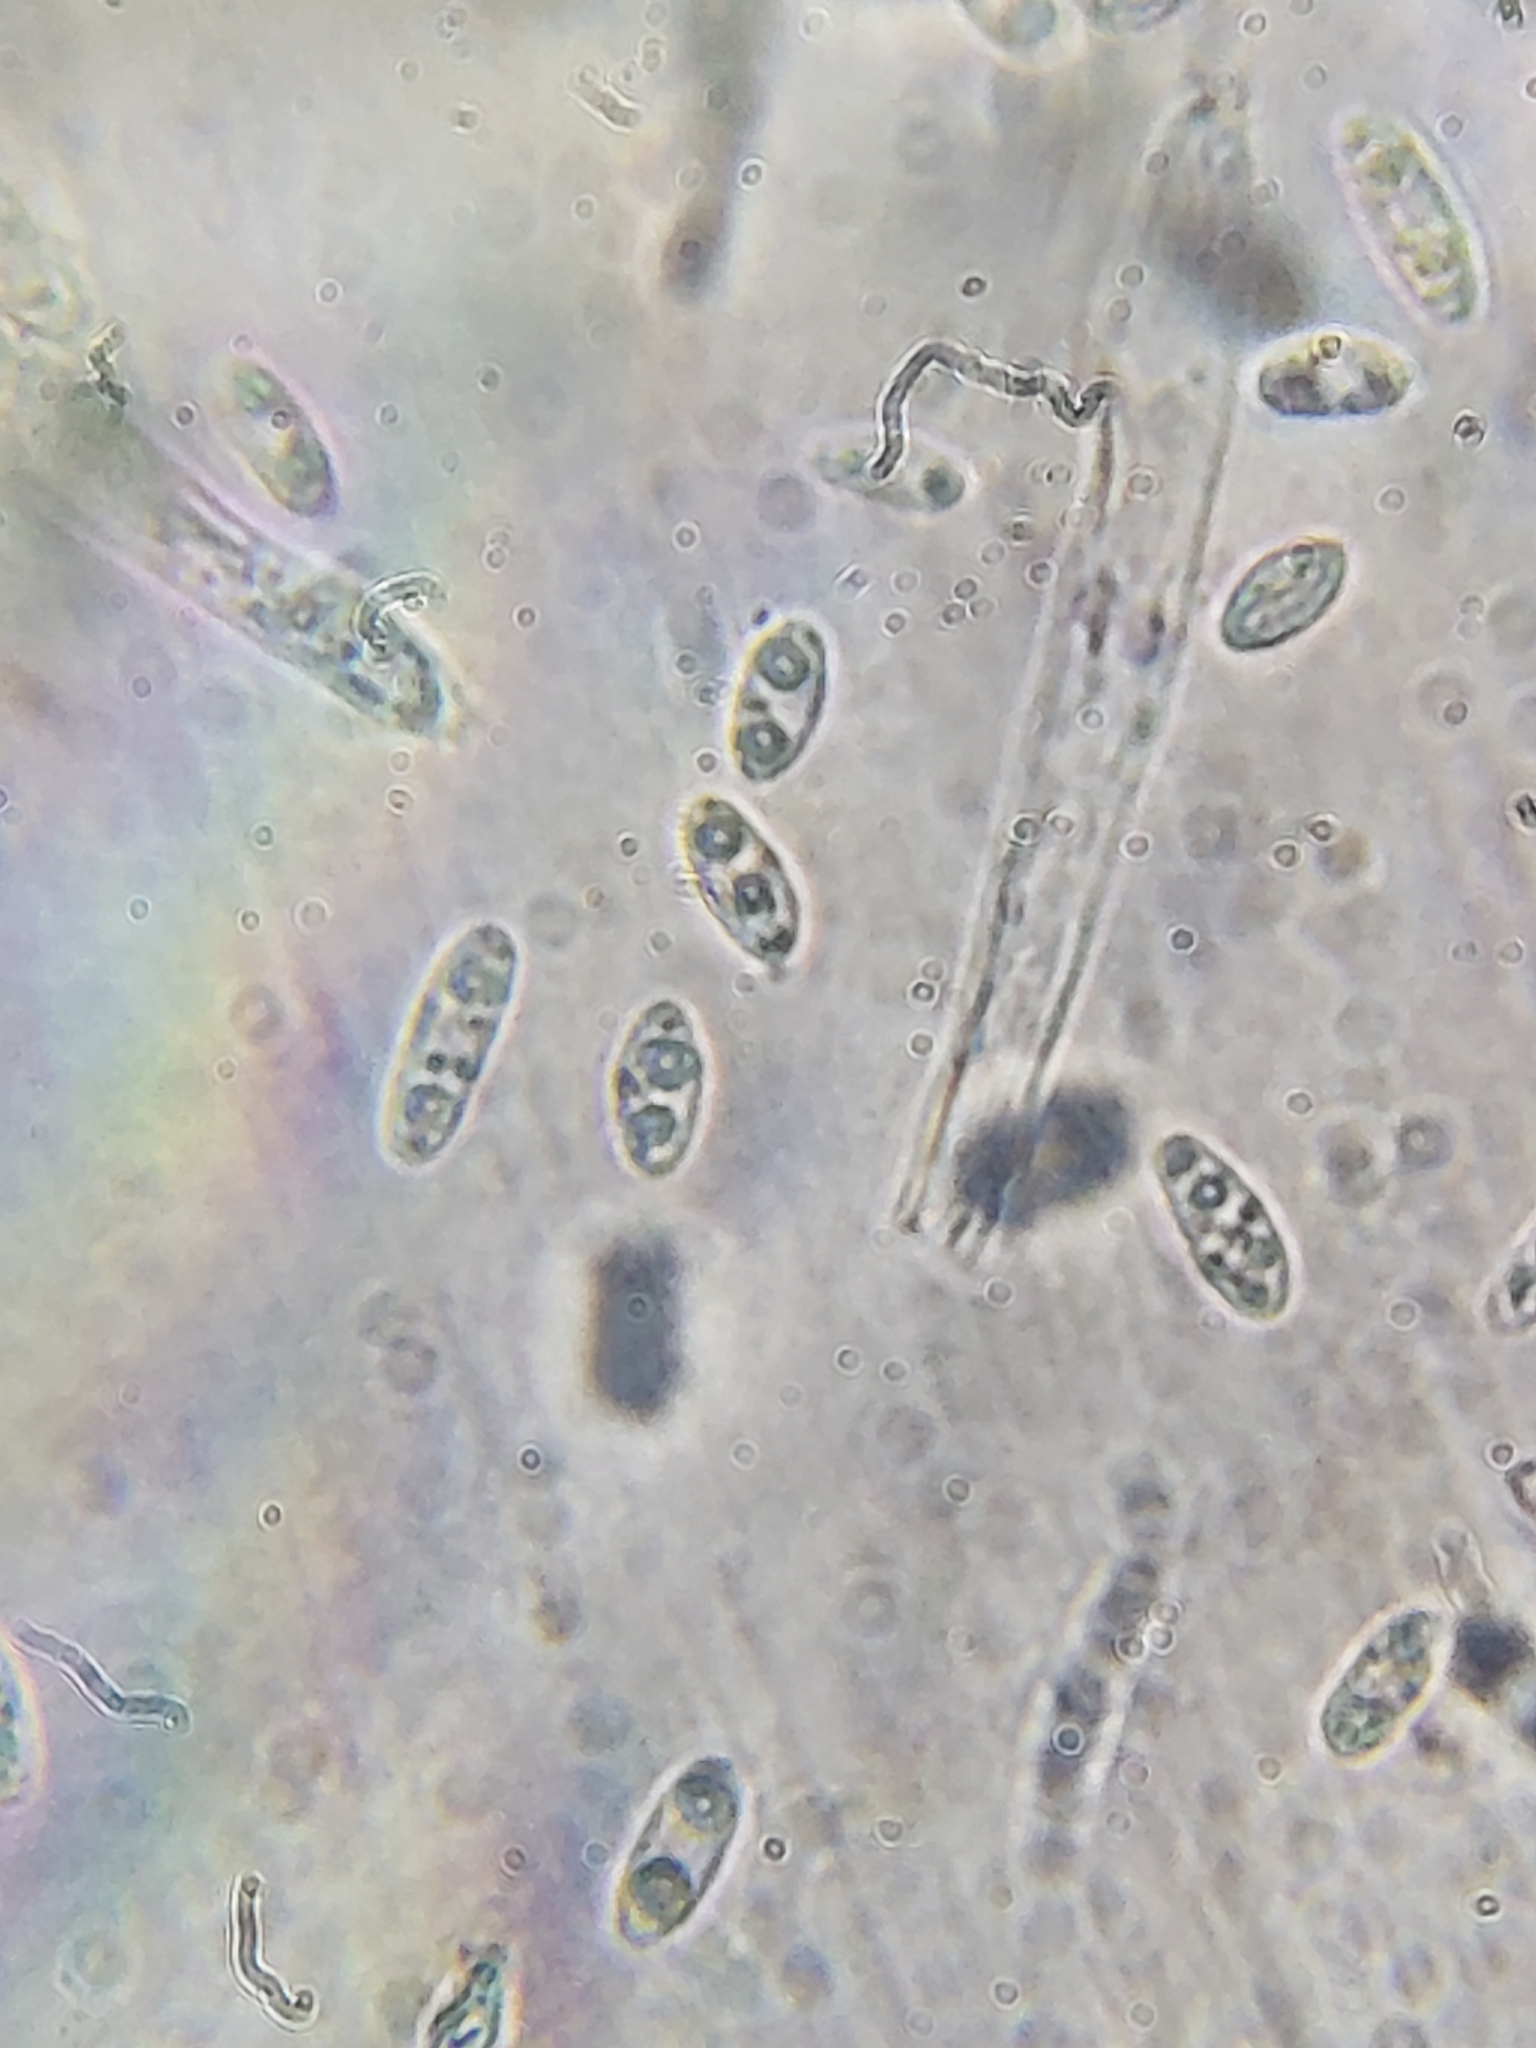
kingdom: Fungi
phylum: Ascomycota
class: Leotiomycetes
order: Helotiales
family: Cenangiaceae
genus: Chlorencoelia
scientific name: Chlorencoelia torta
